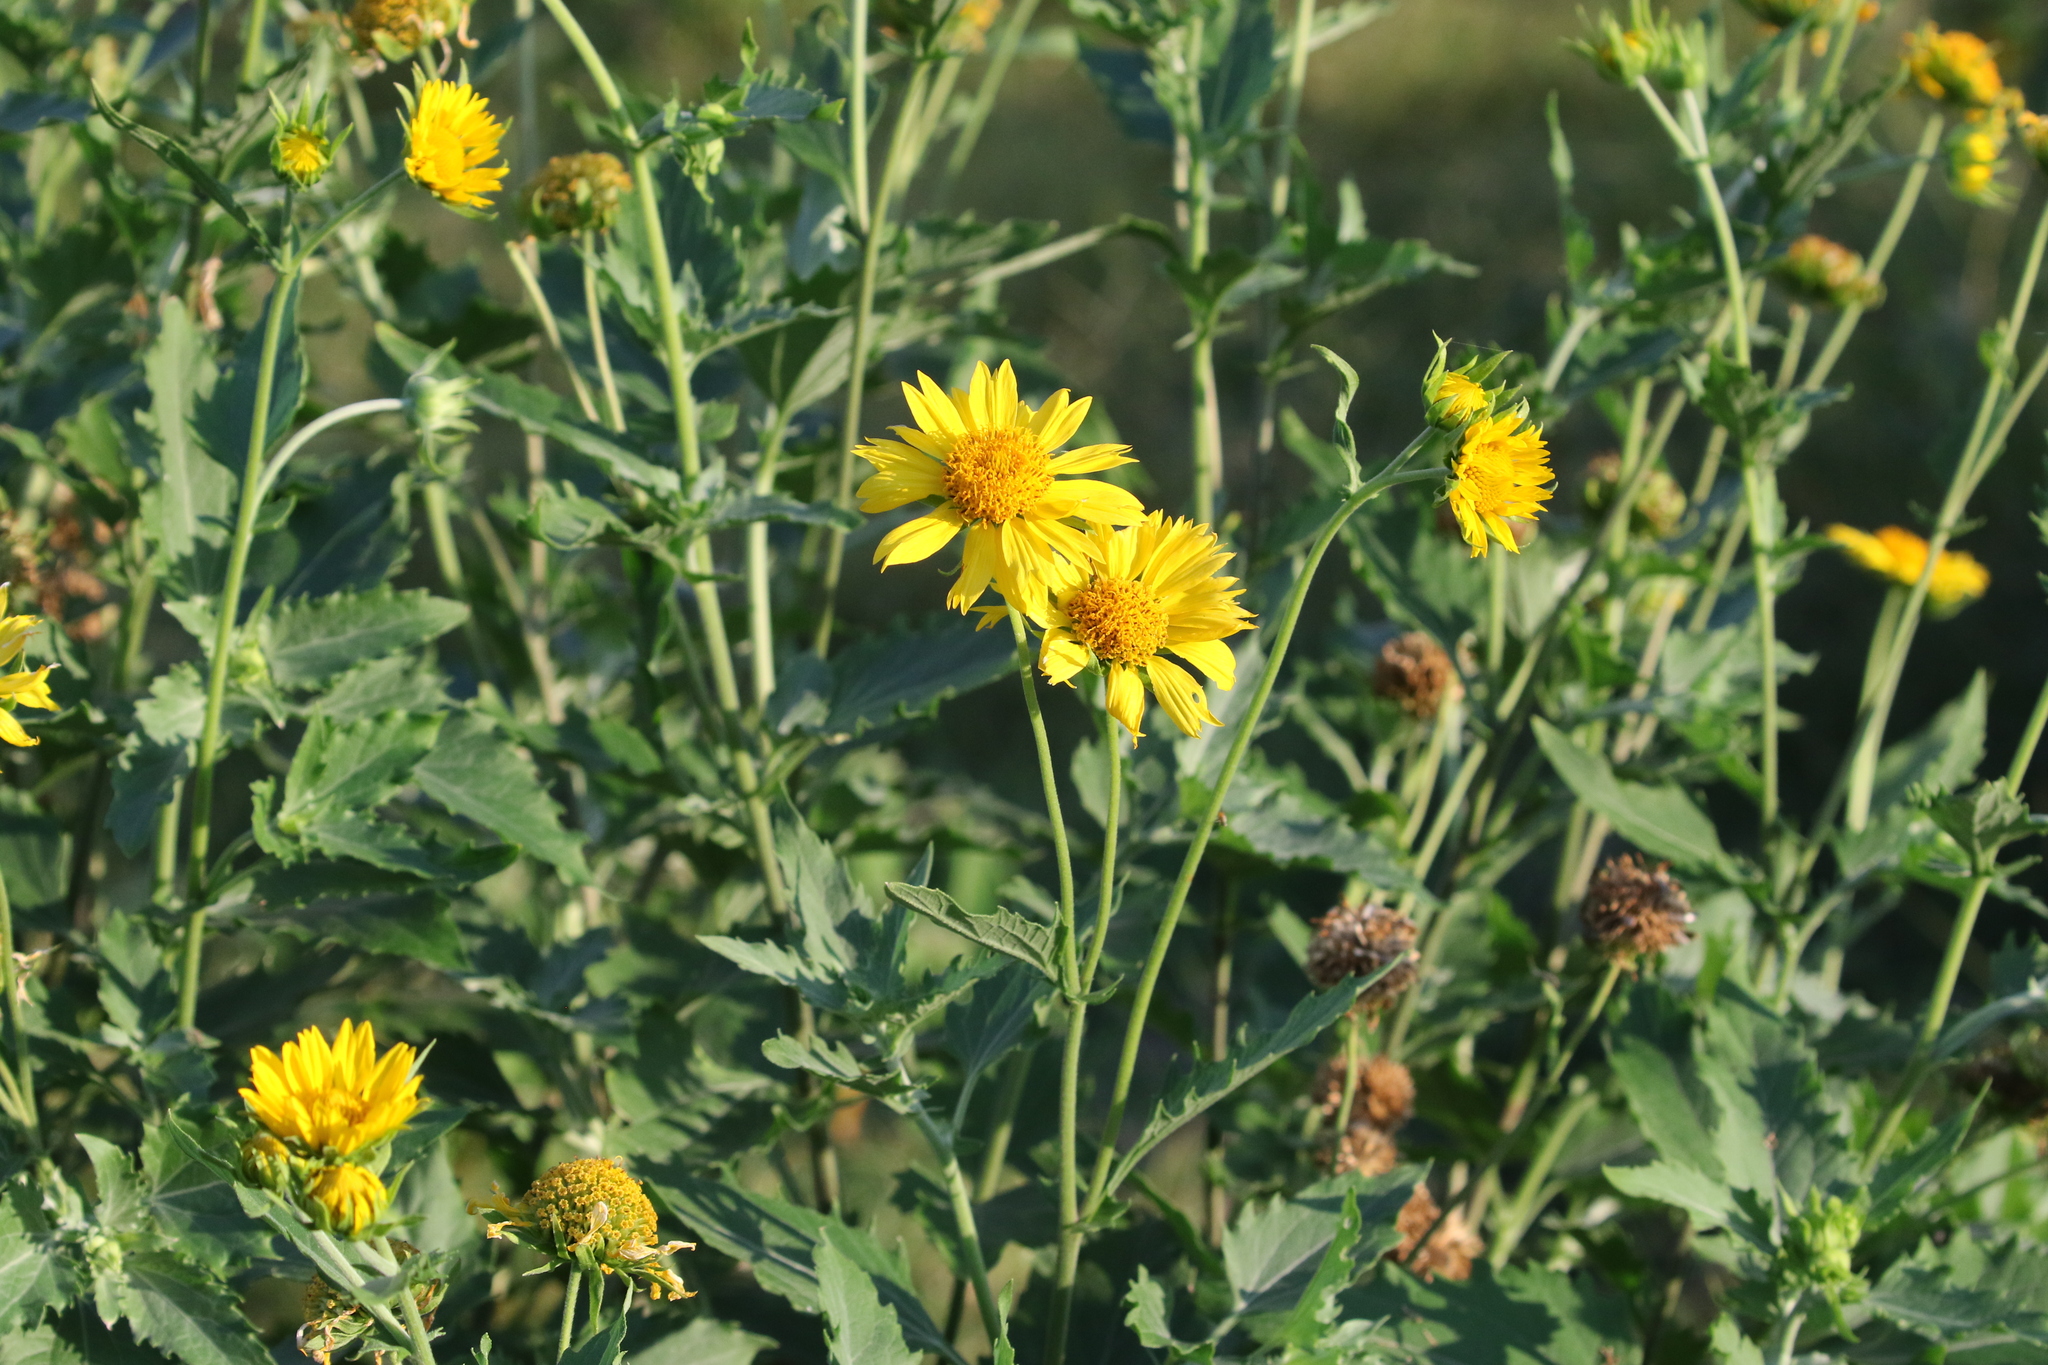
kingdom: Plantae
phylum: Tracheophyta
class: Magnoliopsida
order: Asterales
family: Asteraceae
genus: Verbesina
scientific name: Verbesina encelioides
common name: Golden crownbeard
